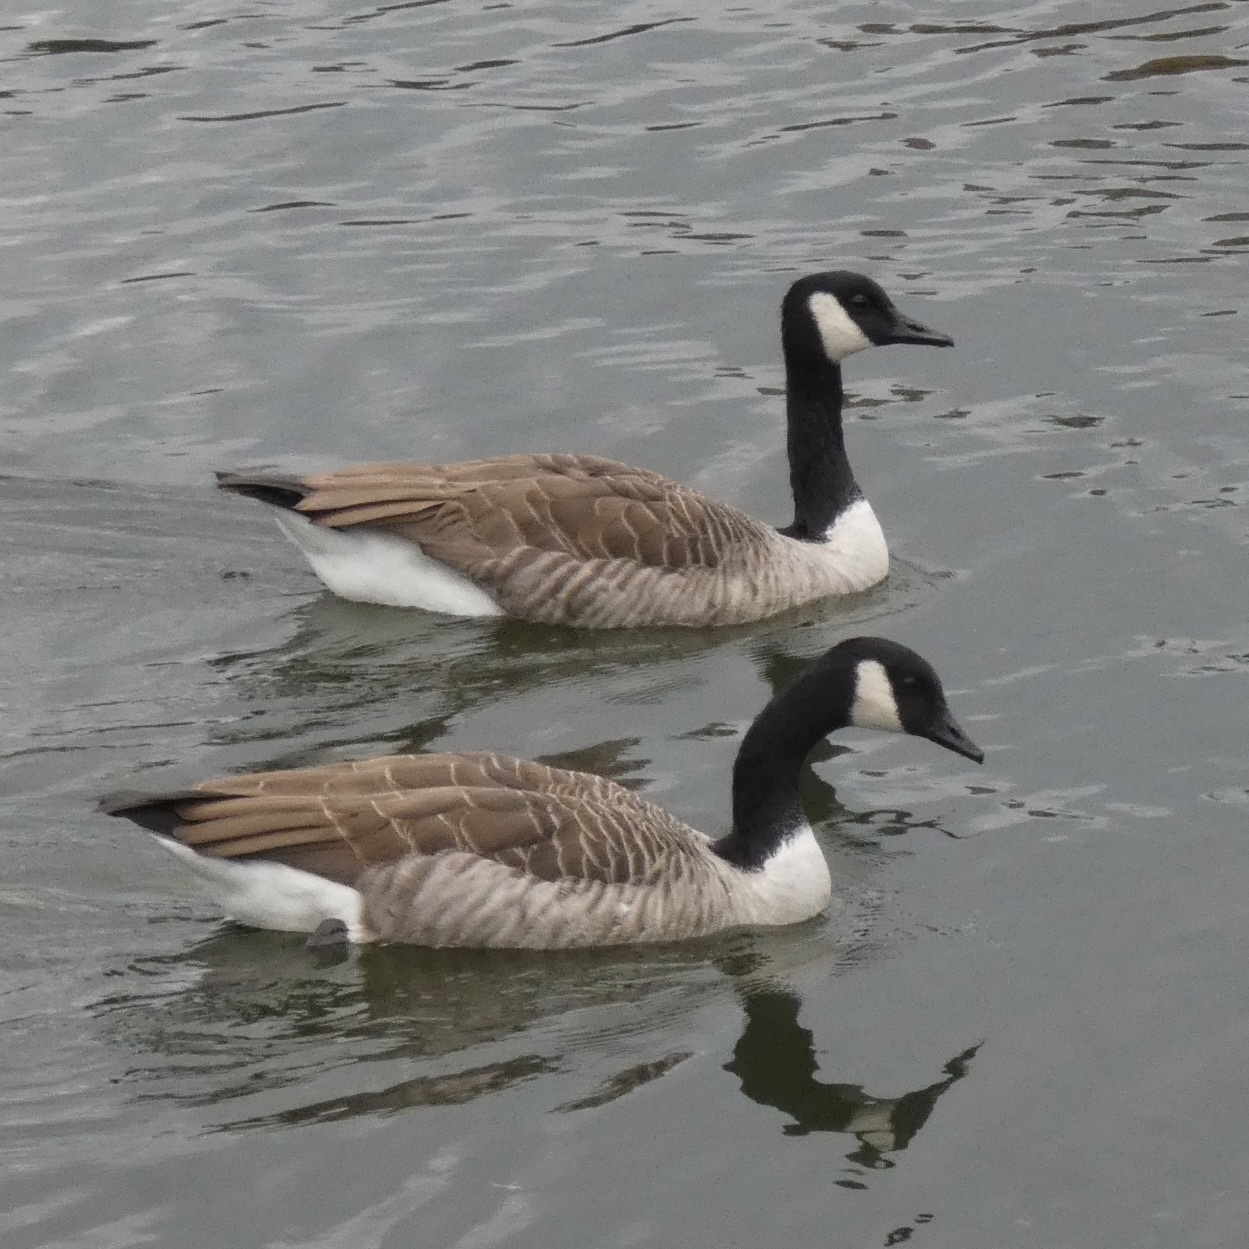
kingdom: Animalia
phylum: Chordata
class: Aves
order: Anseriformes
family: Anatidae
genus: Branta
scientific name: Branta canadensis
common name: Canada goose
